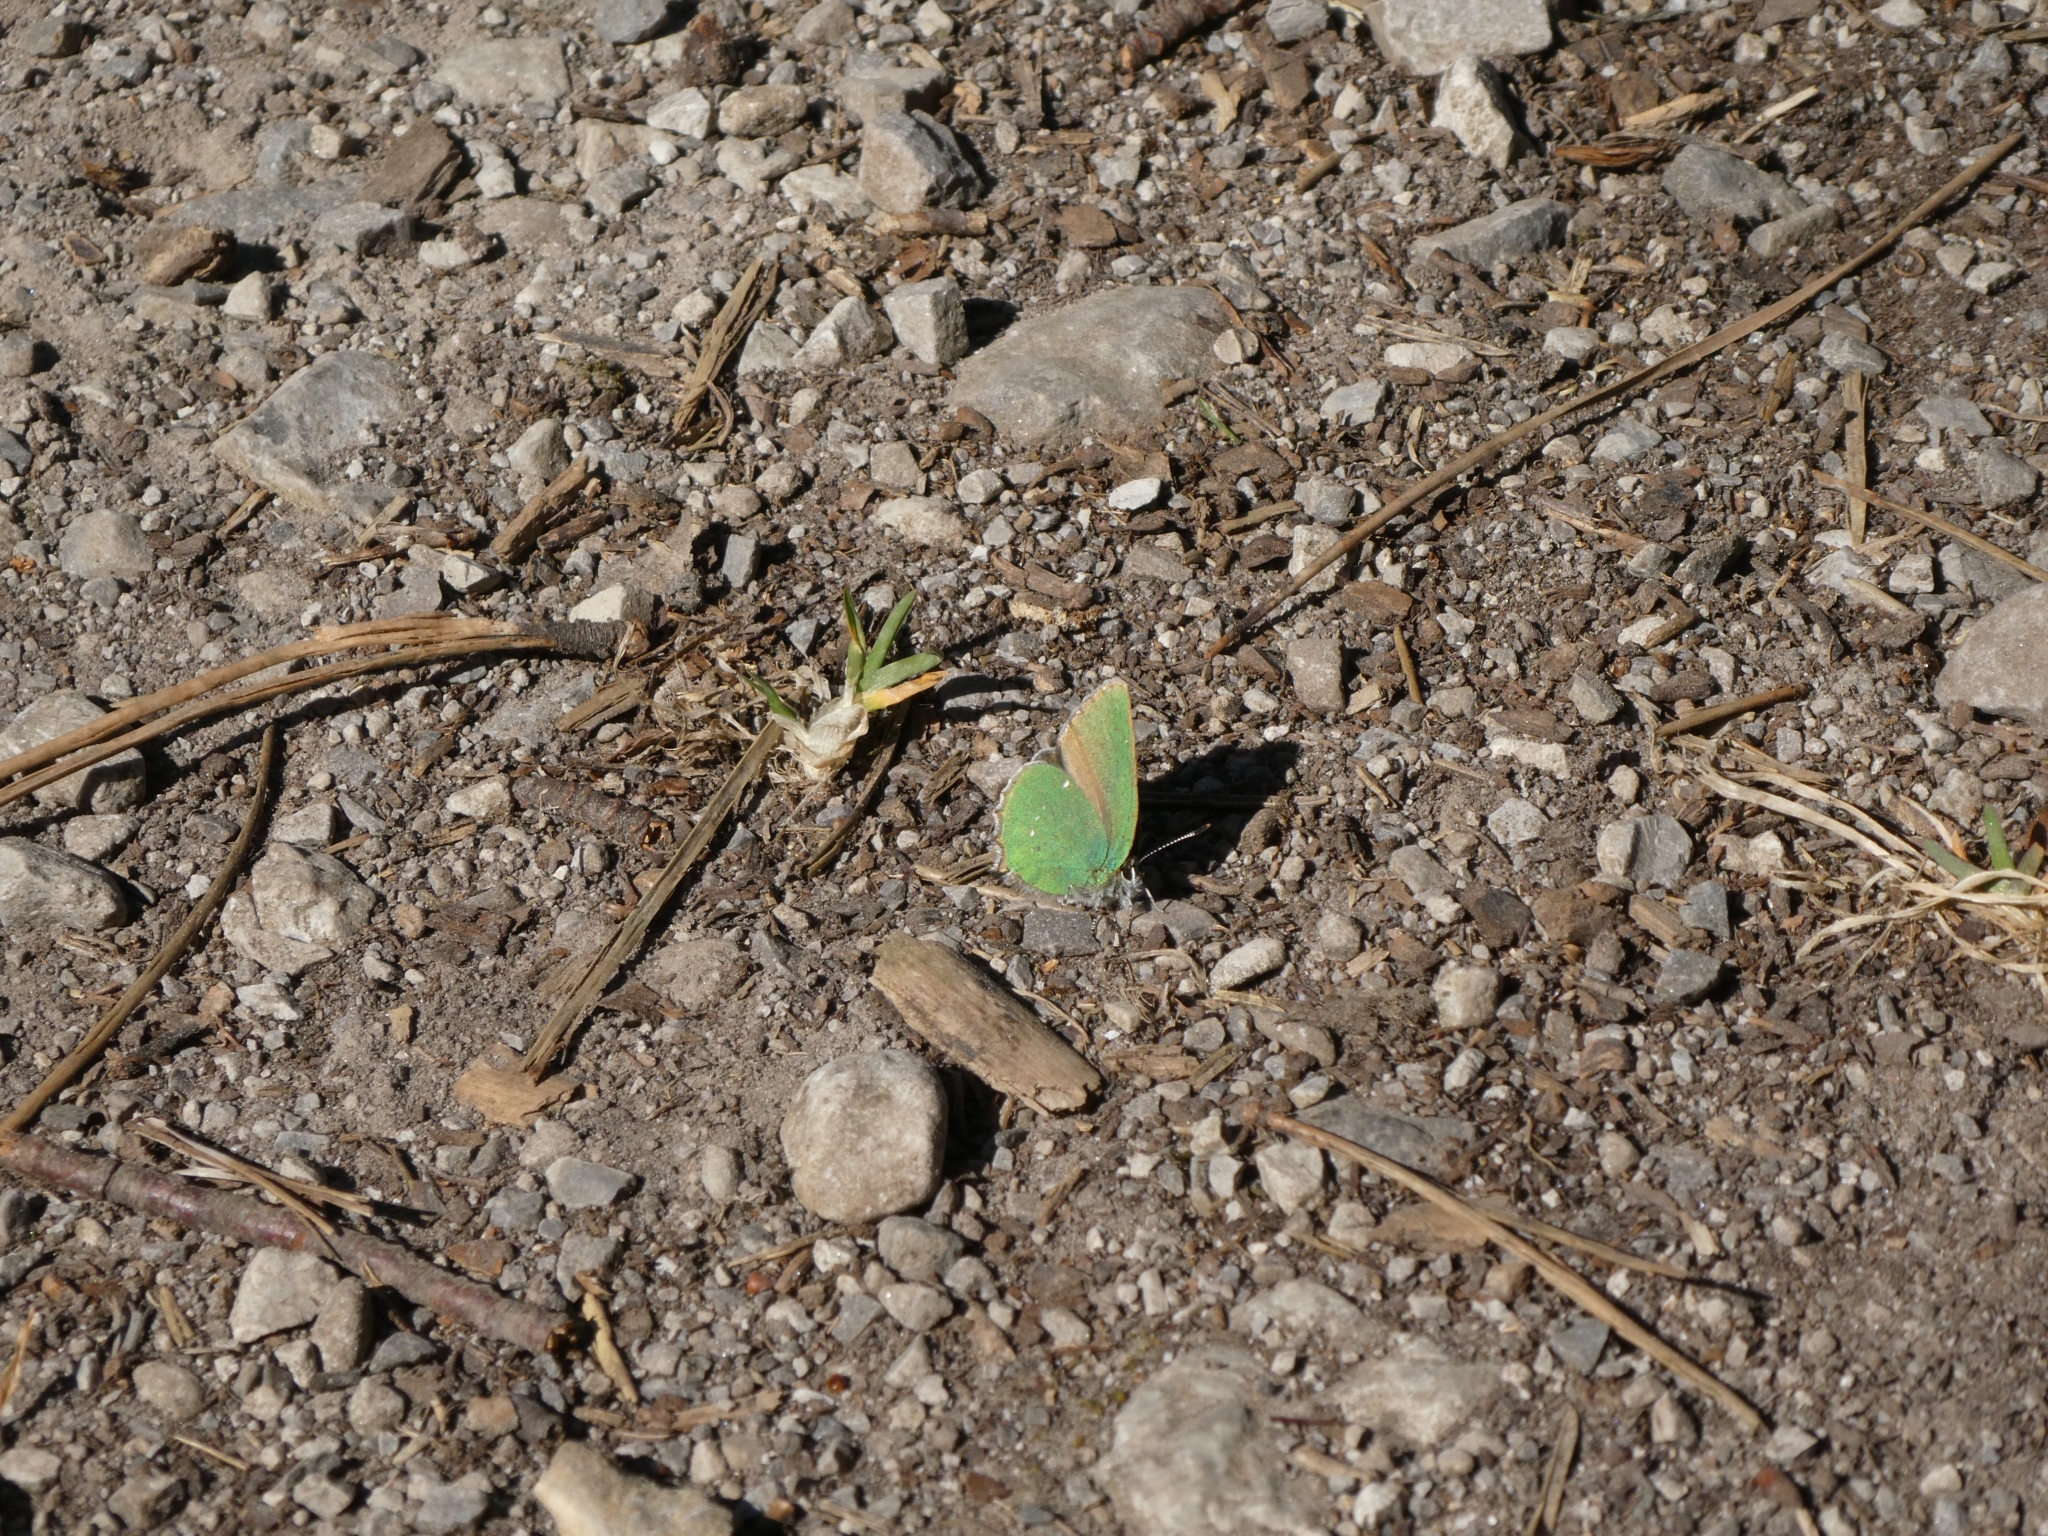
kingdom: Animalia
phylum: Arthropoda
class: Insecta
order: Lepidoptera
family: Lycaenidae
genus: Callophrys
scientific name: Callophrys rubi
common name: Green hairstreak
